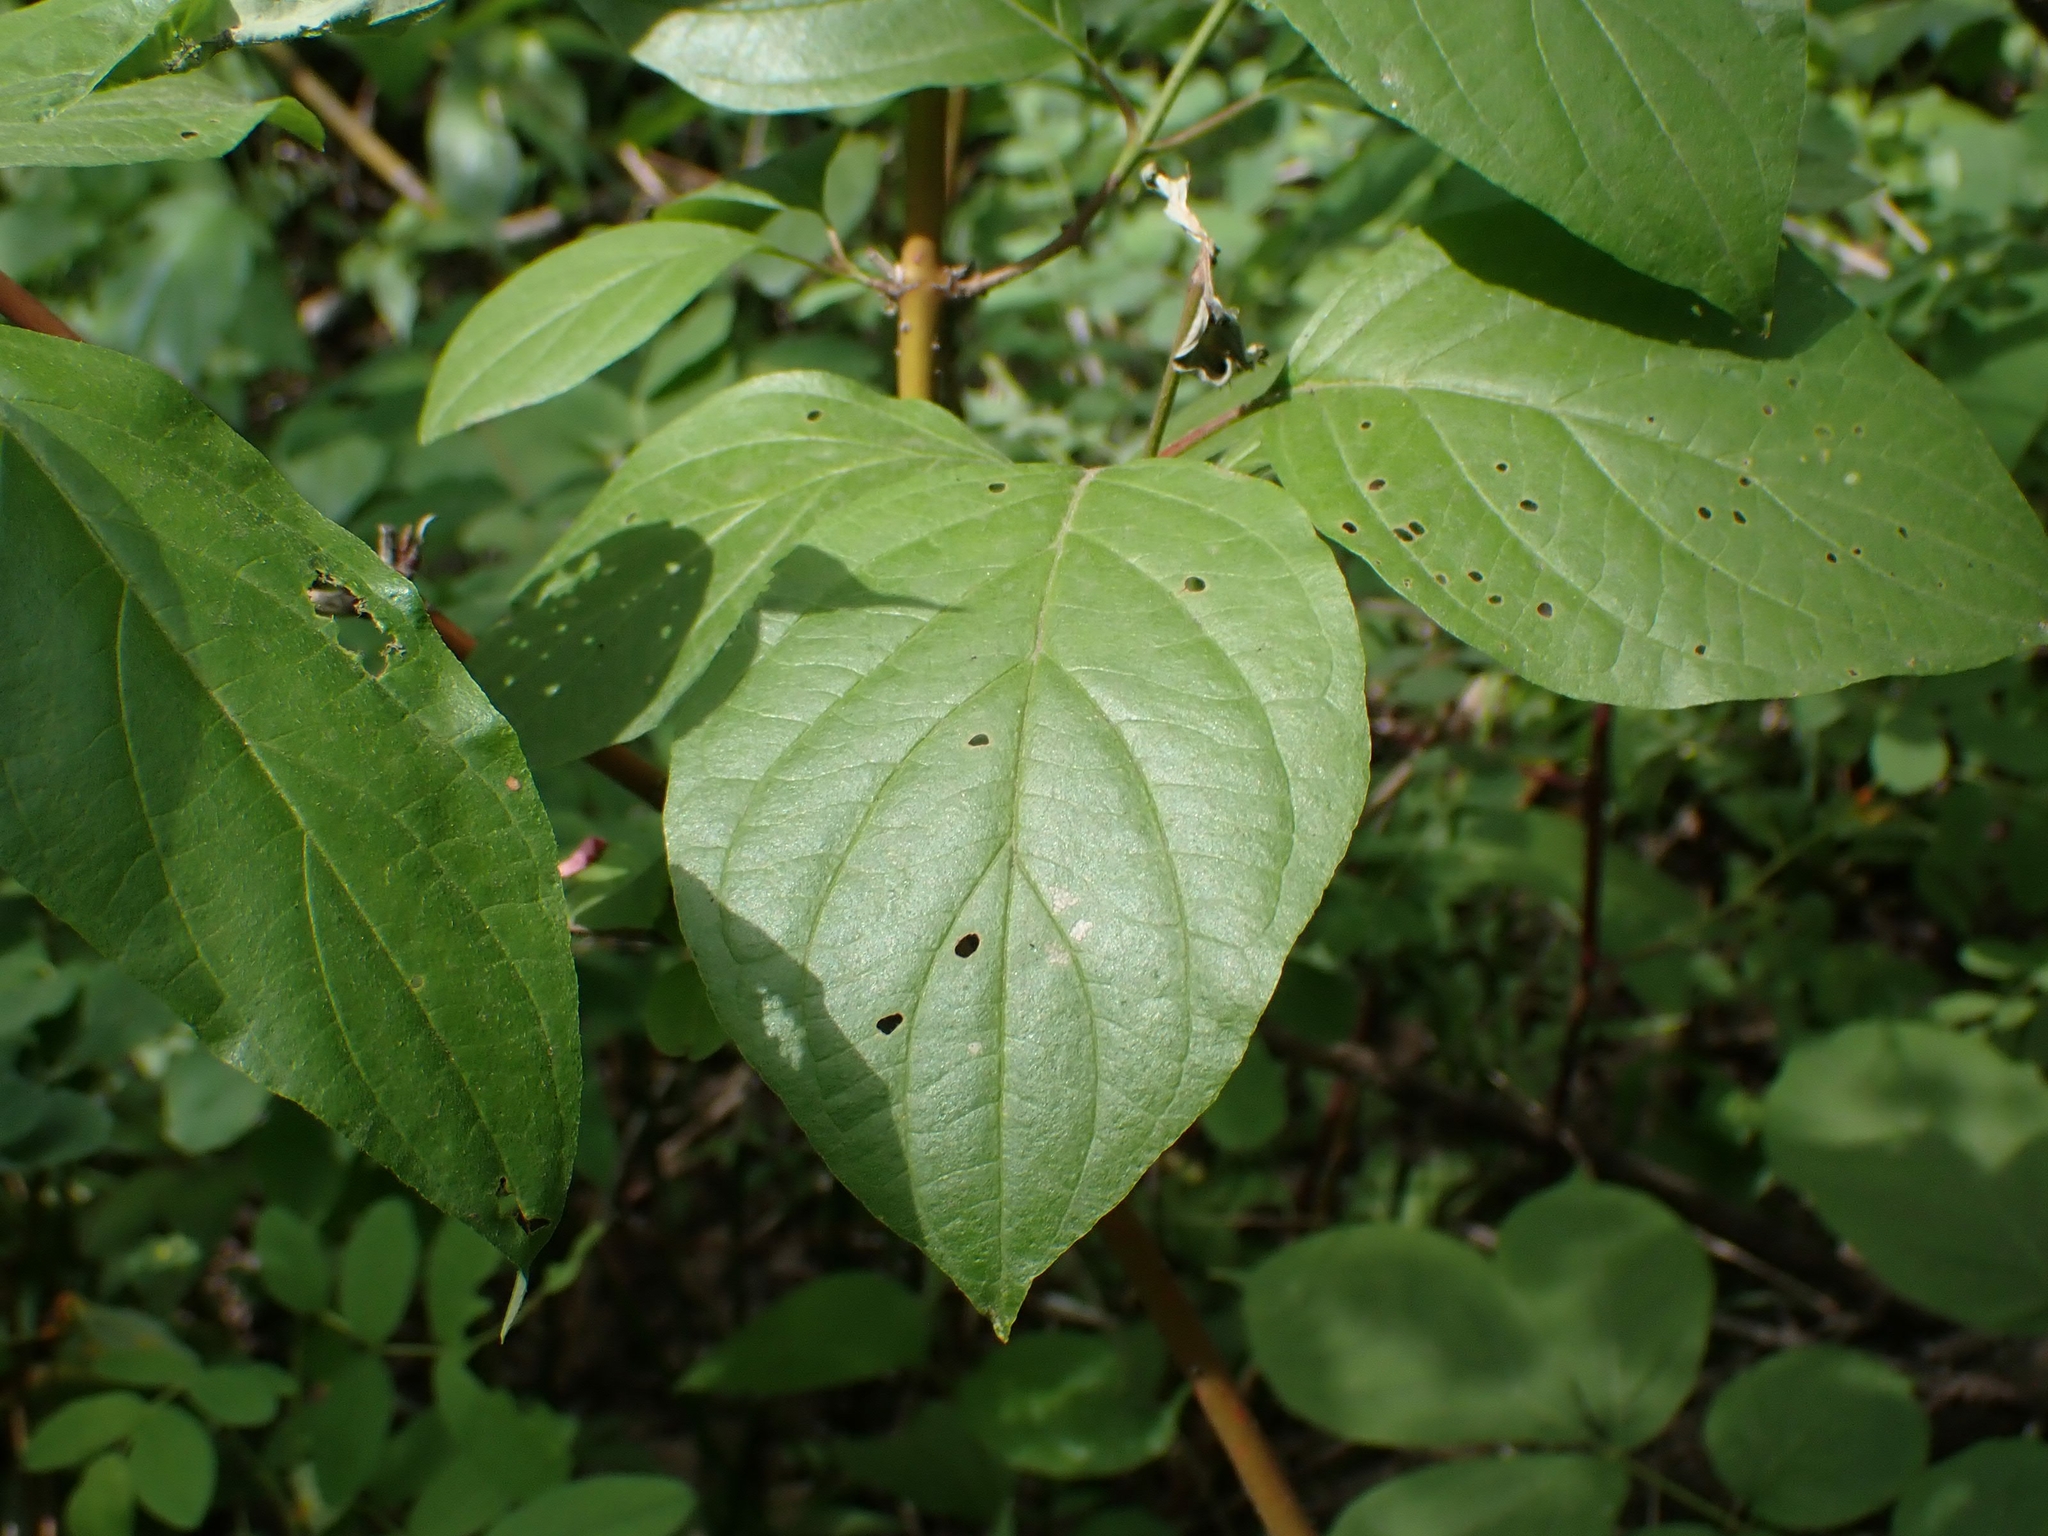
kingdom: Plantae
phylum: Tracheophyta
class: Magnoliopsida
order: Cornales
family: Cornaceae
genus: Cornus
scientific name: Cornus sericea
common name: Red-osier dogwood
